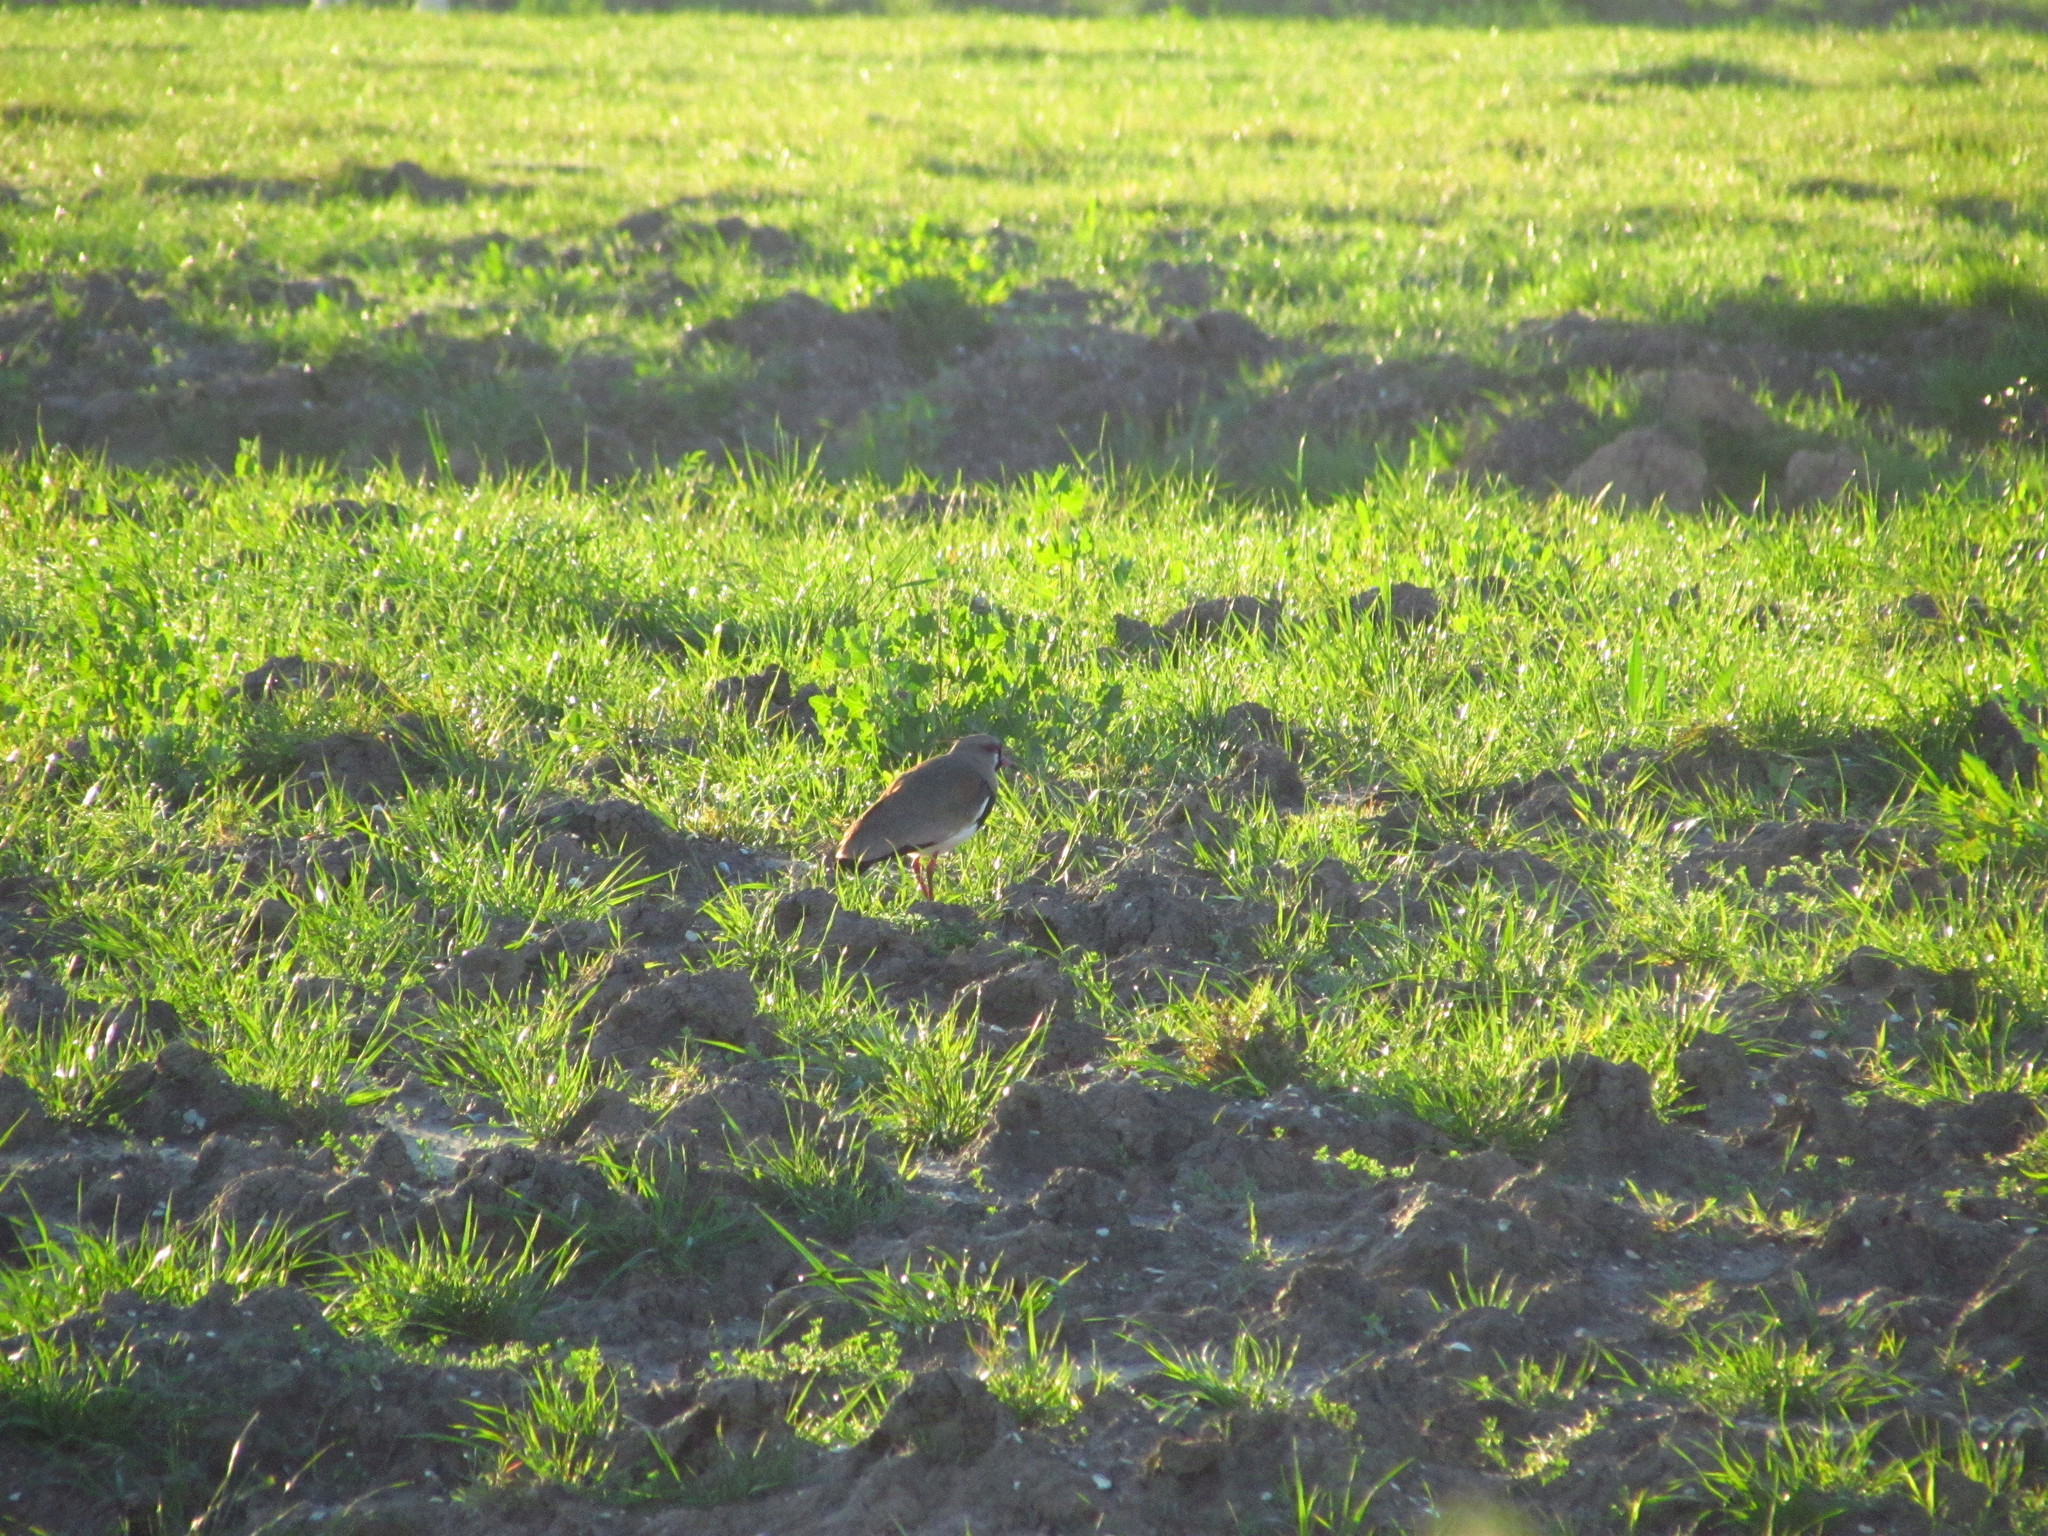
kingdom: Animalia
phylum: Chordata
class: Aves
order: Charadriiformes
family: Charadriidae
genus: Vanellus
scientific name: Vanellus chilensis
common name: Southern lapwing
